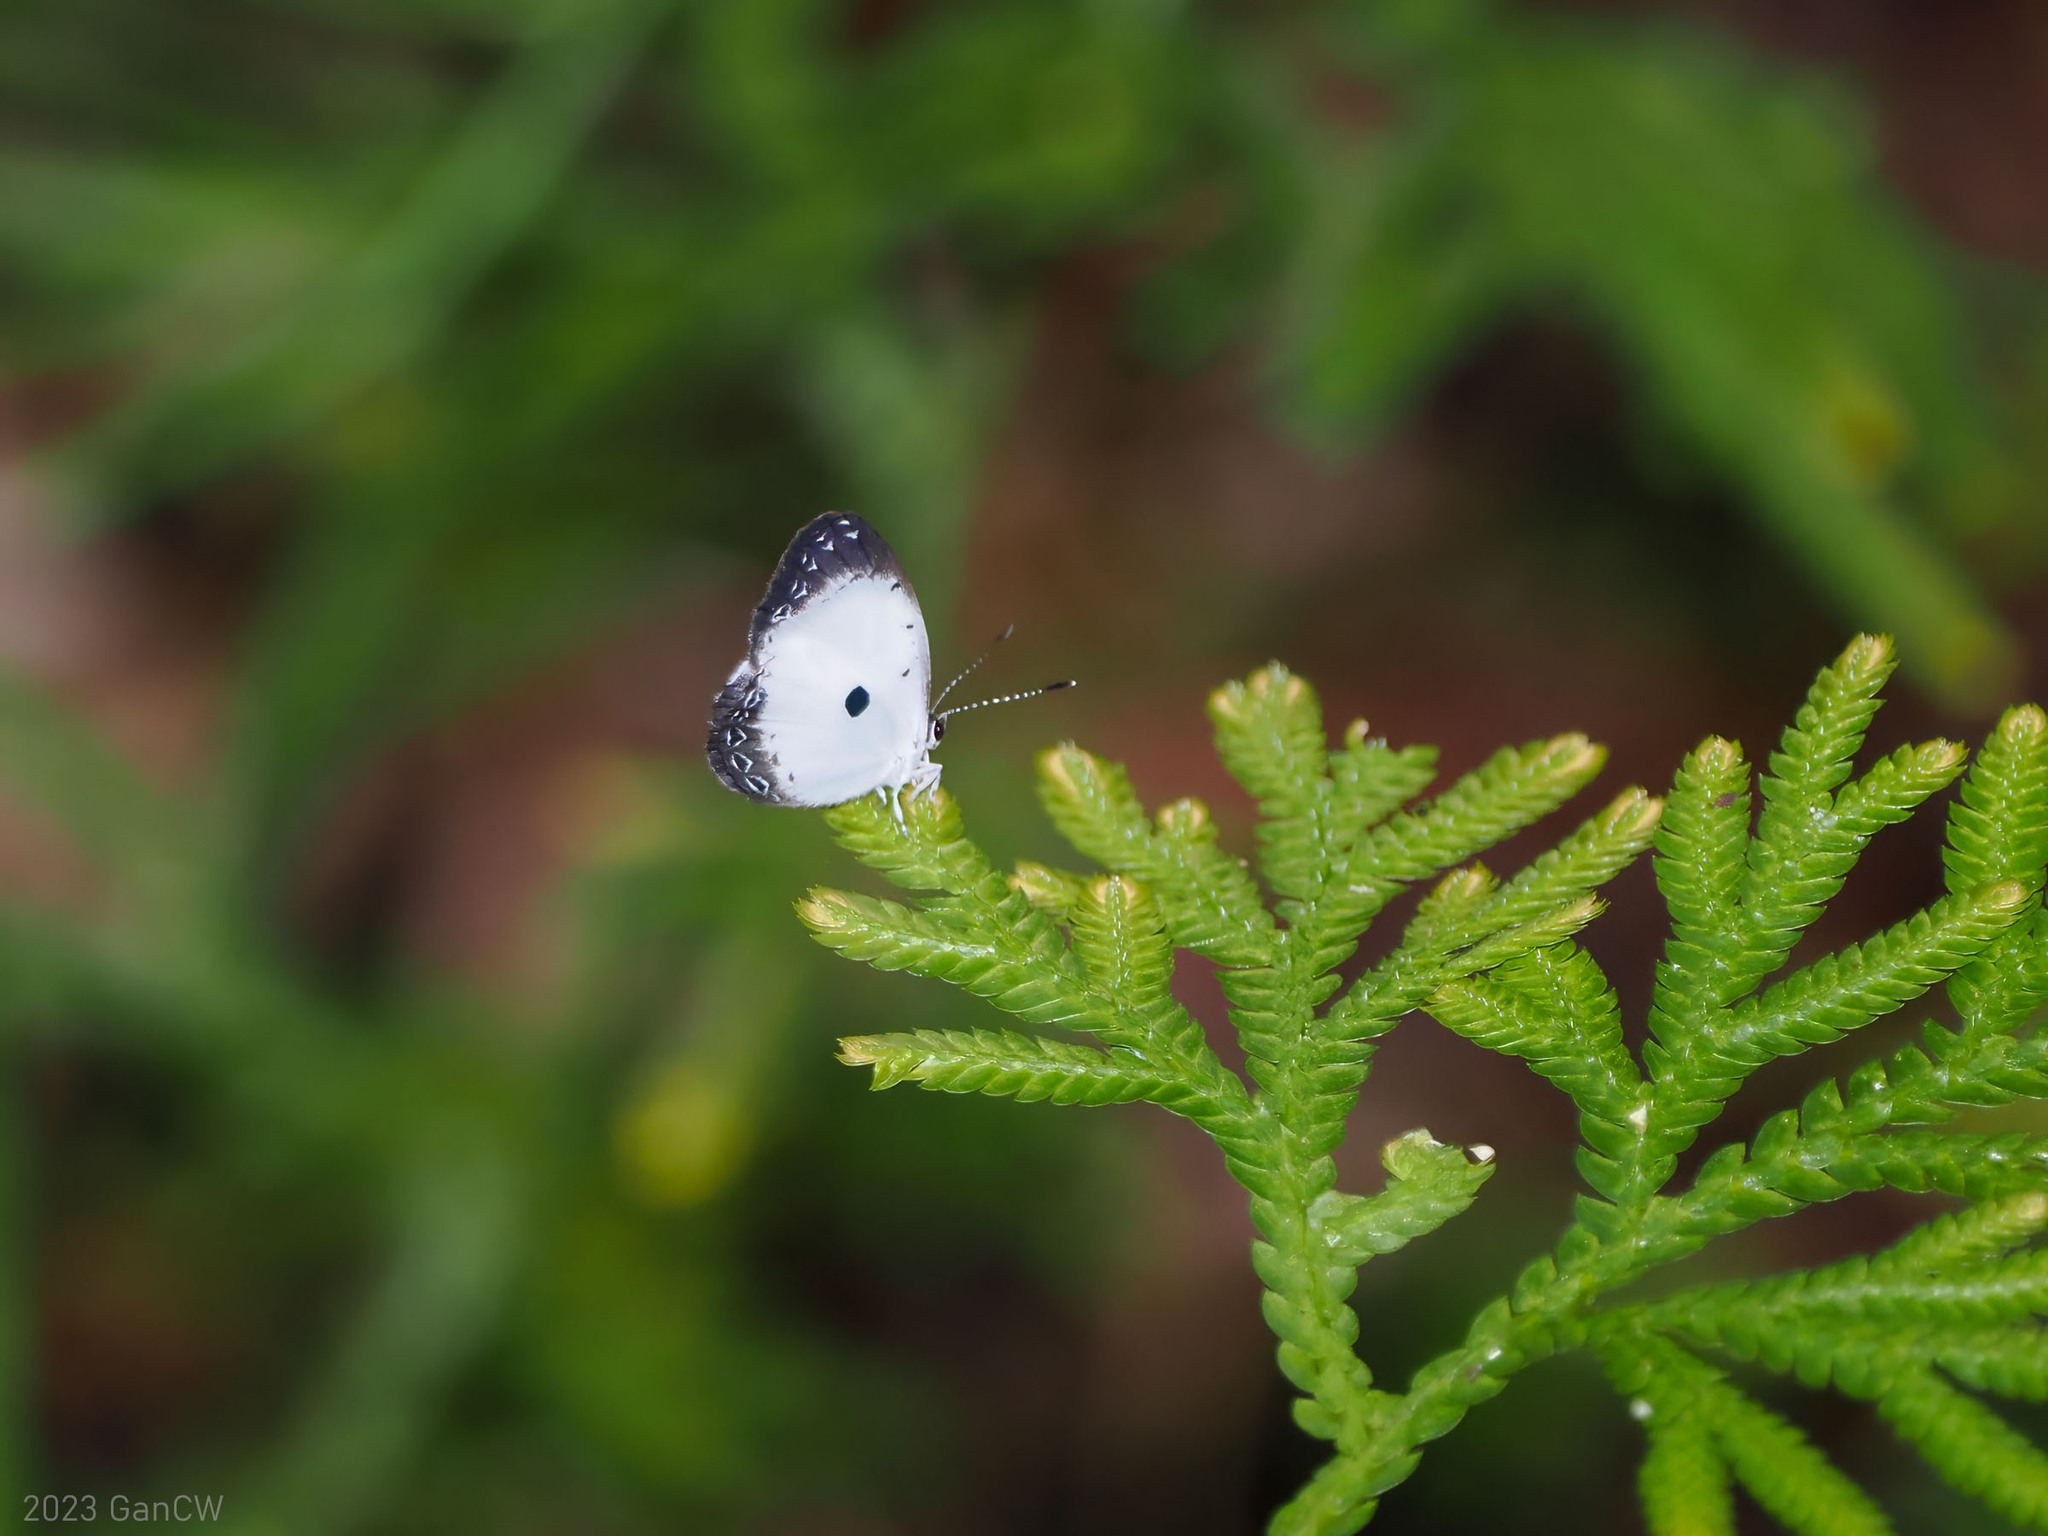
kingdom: Animalia
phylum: Arthropoda
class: Insecta
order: Lepidoptera
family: Lycaenidae
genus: Pithecops
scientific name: Pithecops dionisius
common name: Pied blue
